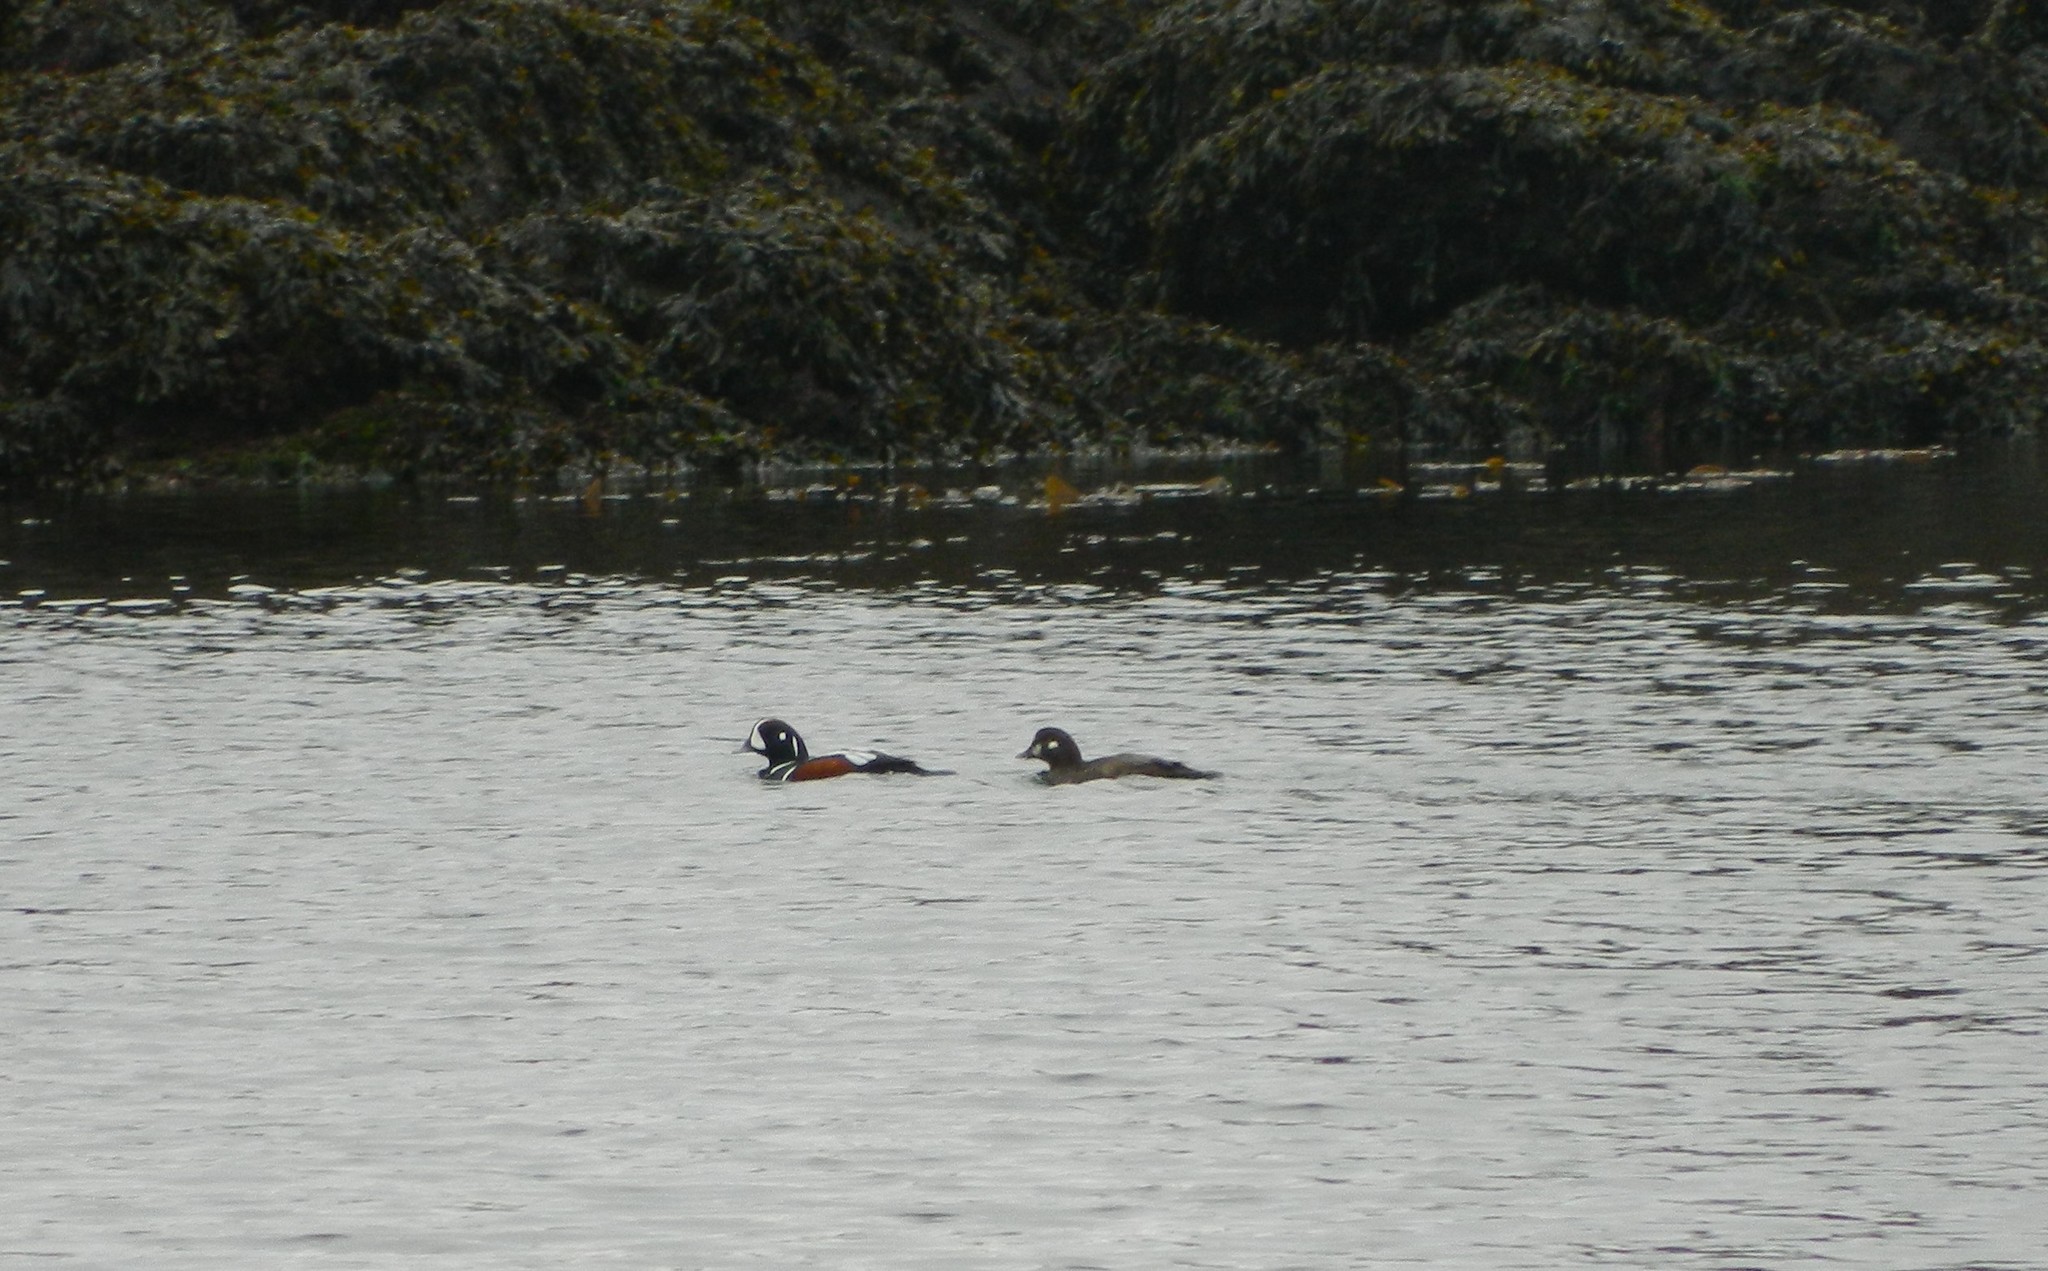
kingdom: Animalia
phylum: Chordata
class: Aves
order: Anseriformes
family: Anatidae
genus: Histrionicus
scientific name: Histrionicus histrionicus
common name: Harlequin duck
